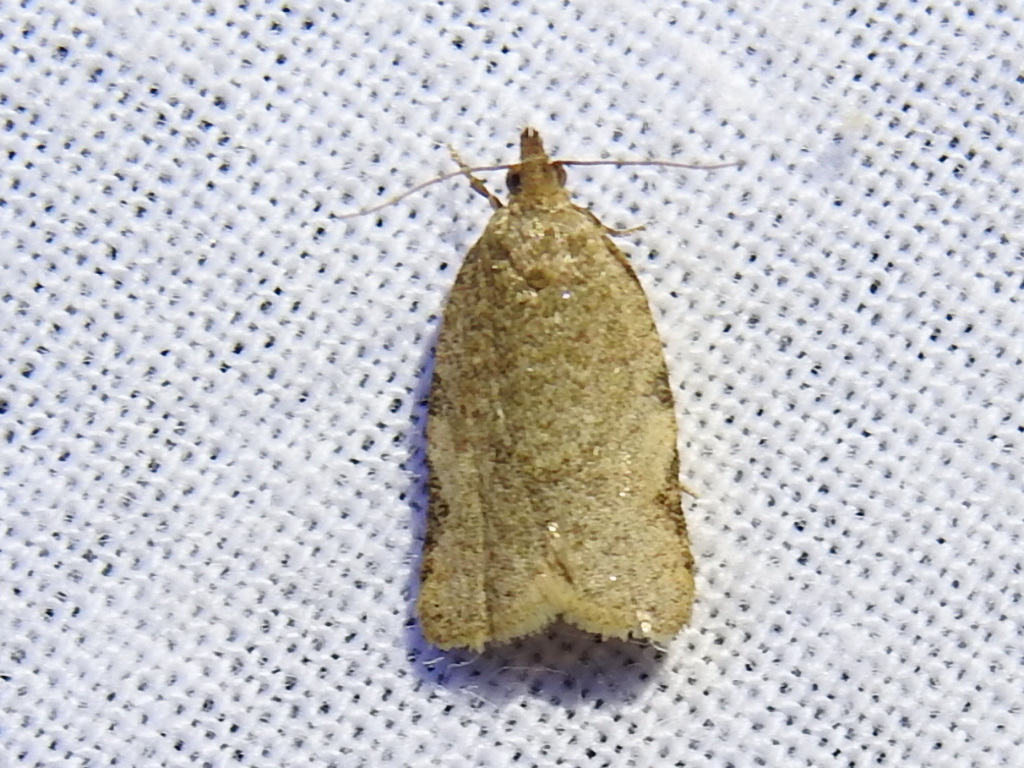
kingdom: Animalia
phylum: Arthropoda
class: Insecta
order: Lepidoptera
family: Tortricidae
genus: Clepsis
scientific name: Clepsis virescana
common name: Greenish apple moth
